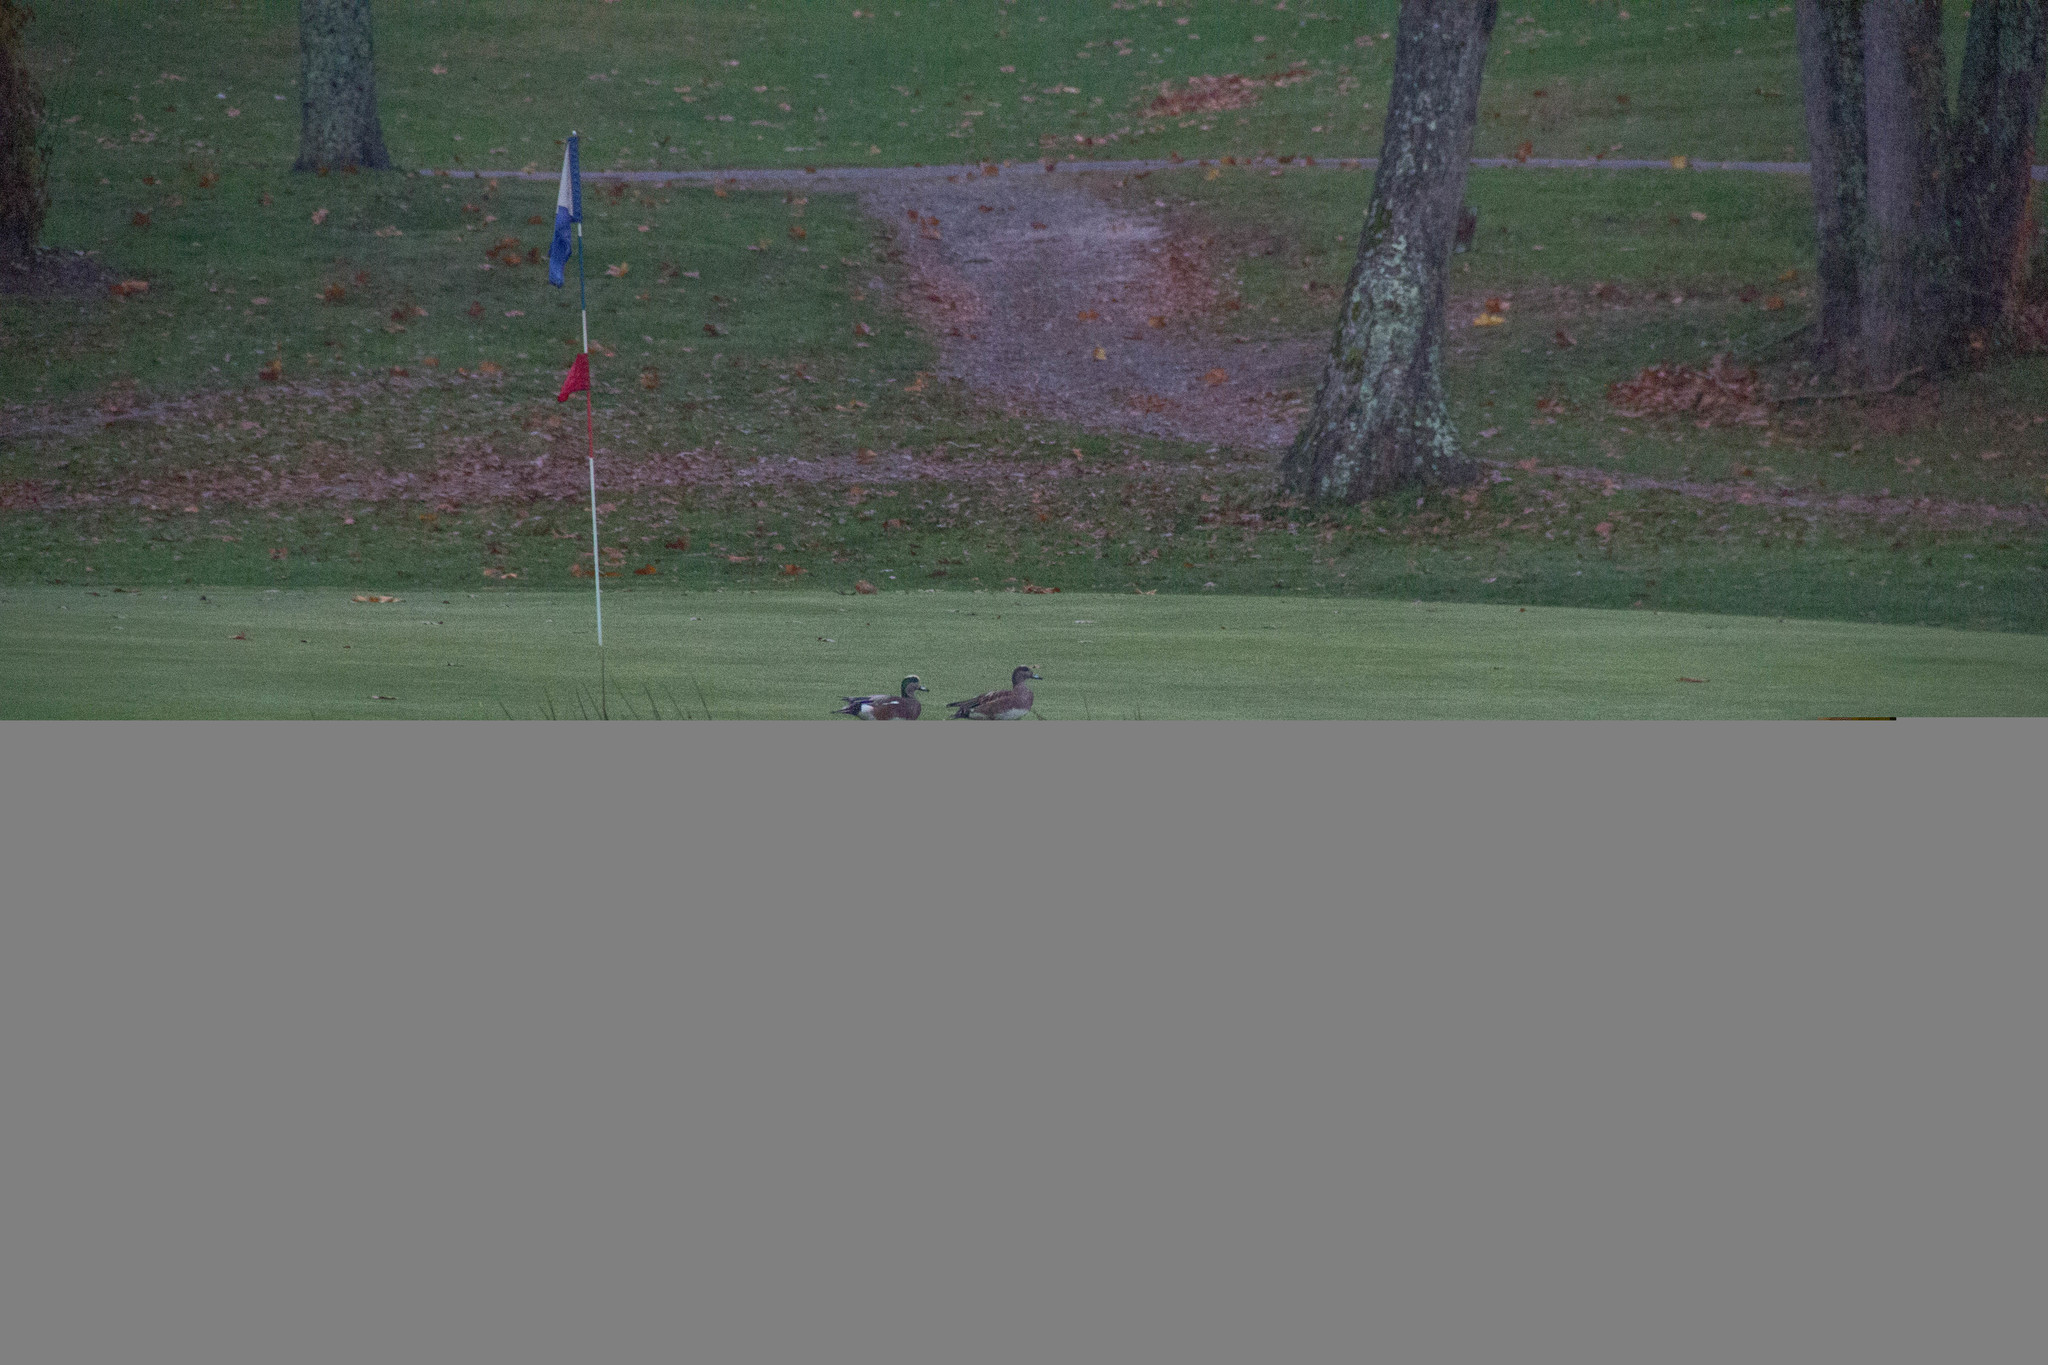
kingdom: Animalia
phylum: Chordata
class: Aves
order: Anseriformes
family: Anatidae
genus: Mareca
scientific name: Mareca americana
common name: American wigeon
